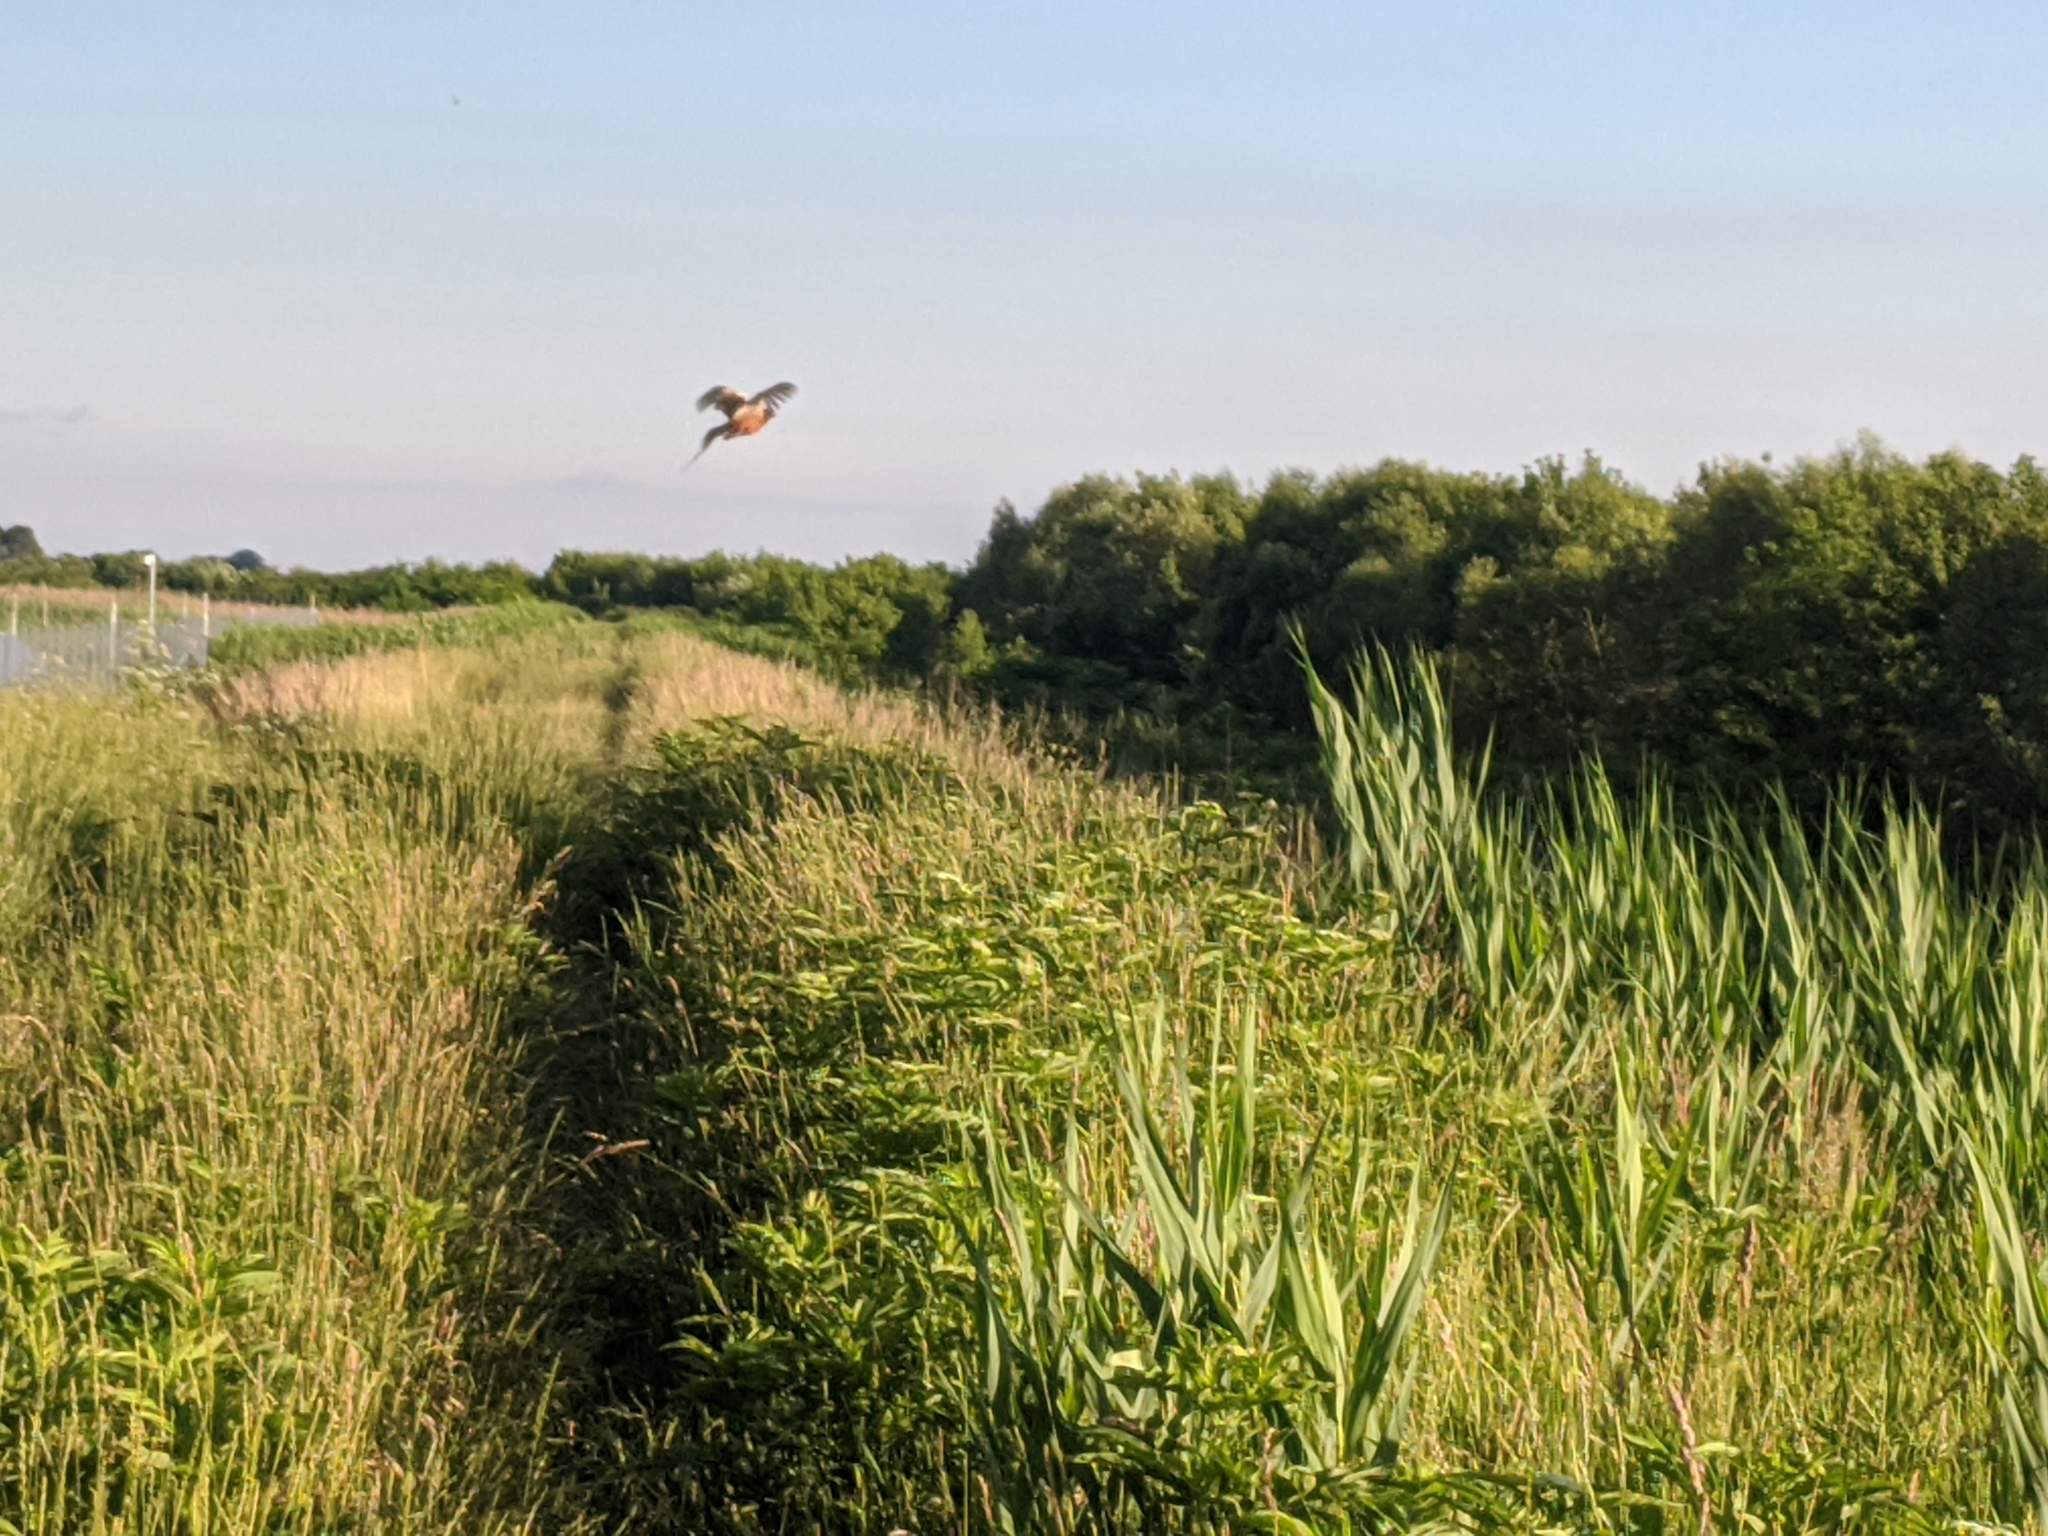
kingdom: Animalia
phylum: Chordata
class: Aves
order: Galliformes
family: Phasianidae
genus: Phasianus
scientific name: Phasianus colchicus
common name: Common pheasant
